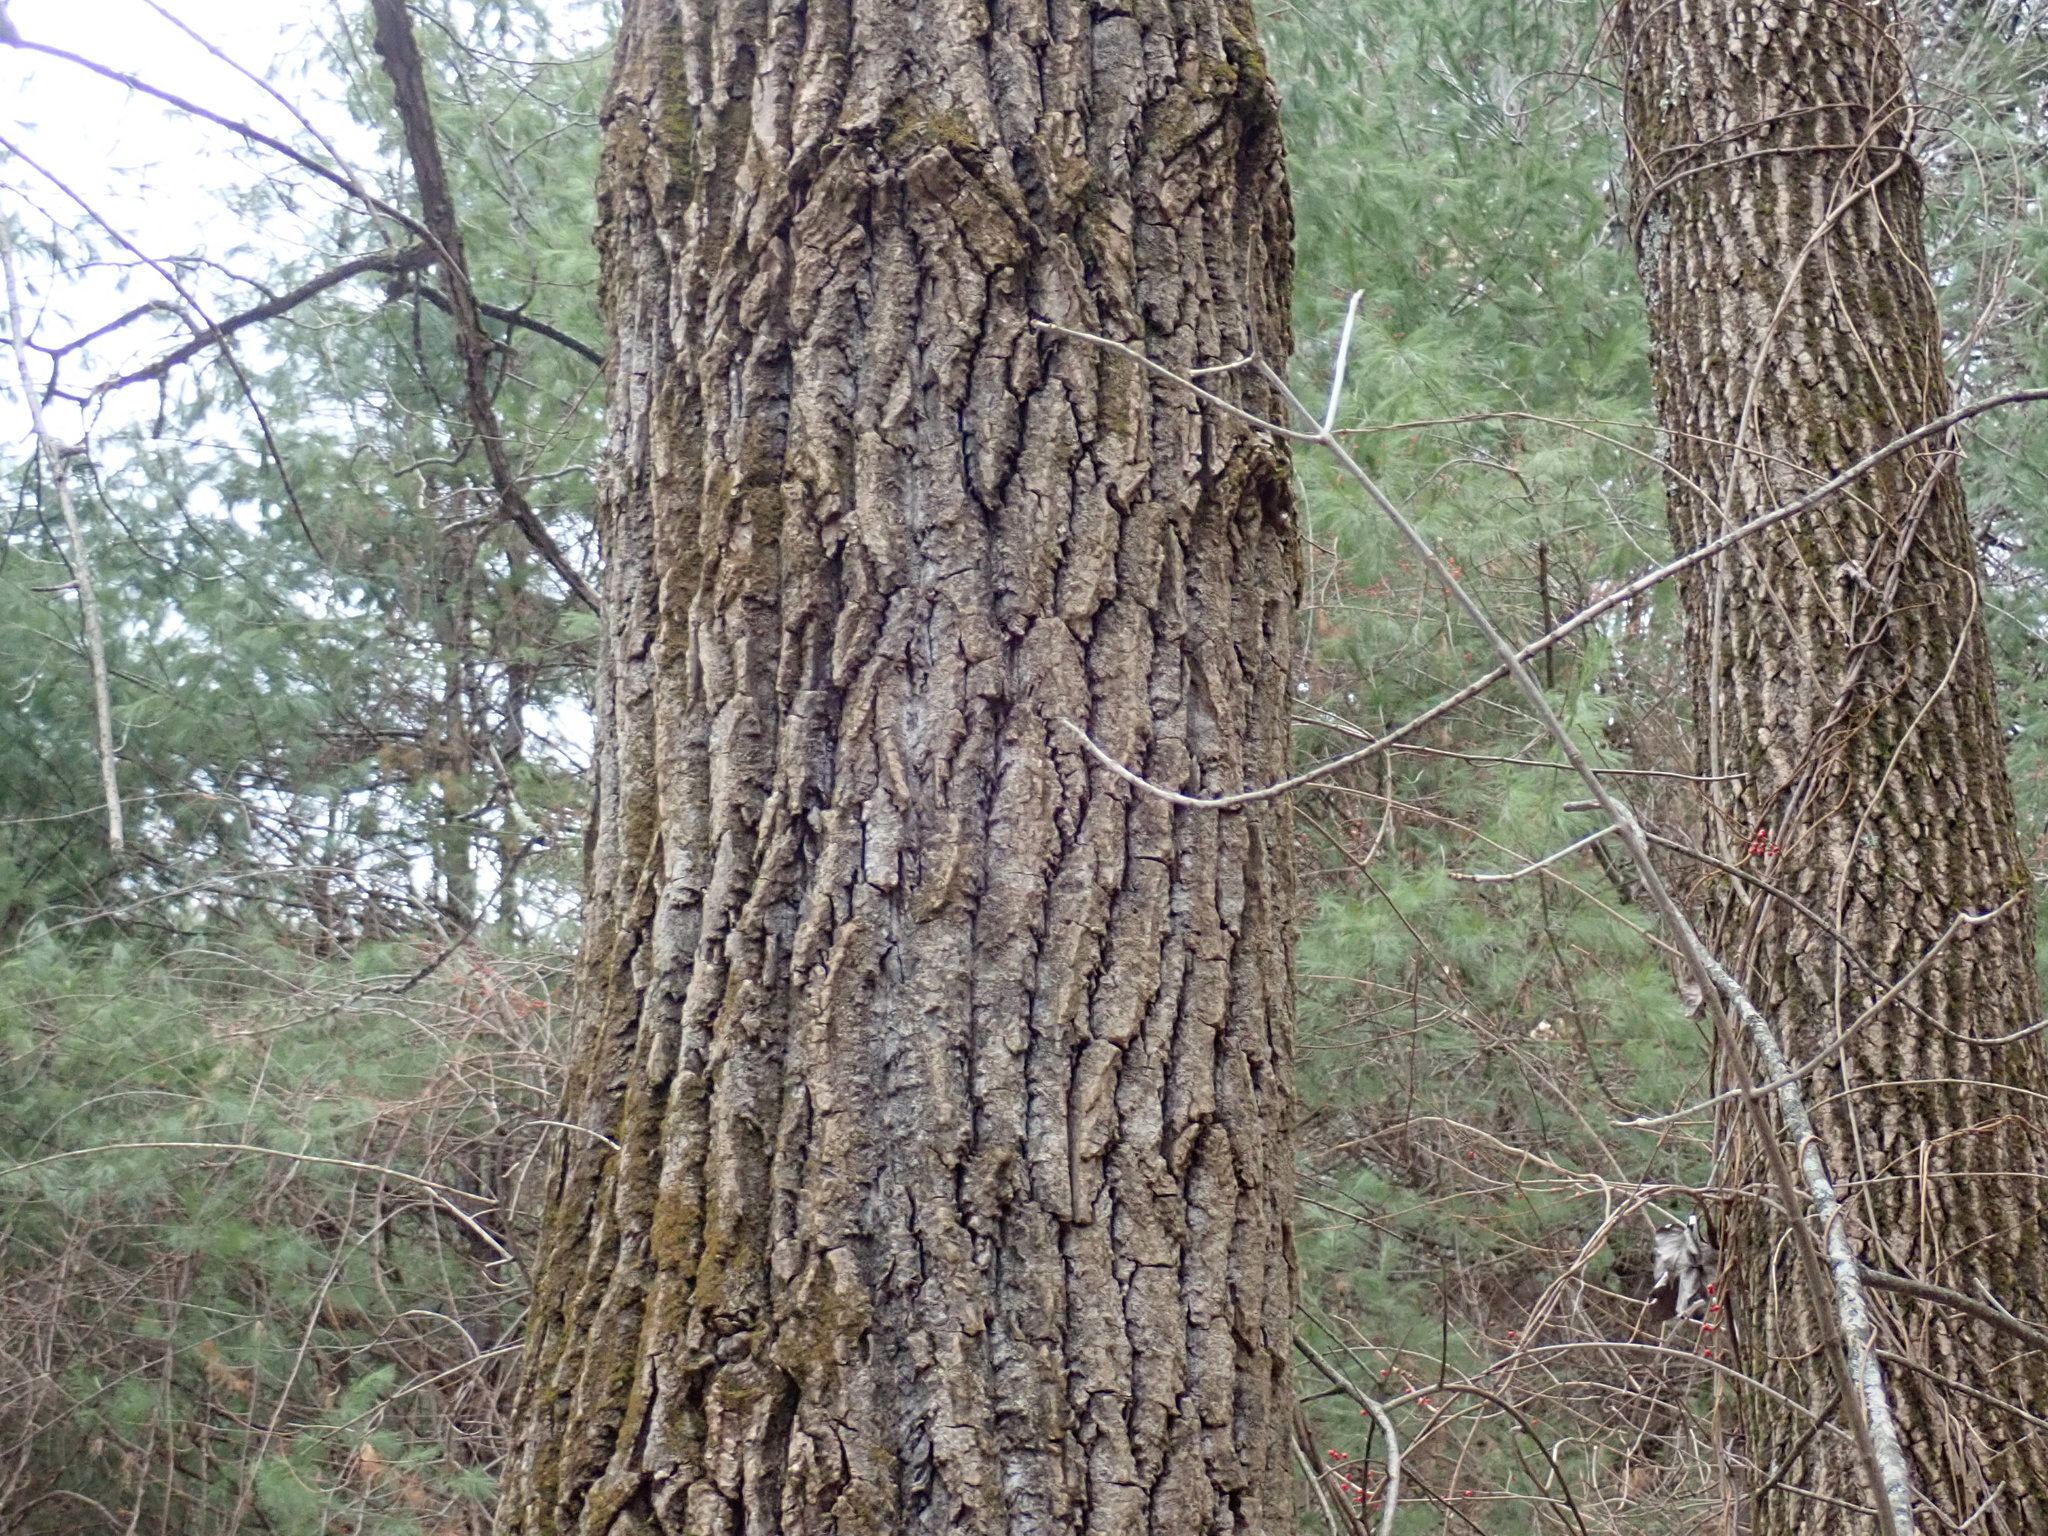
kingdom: Plantae
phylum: Tracheophyta
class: Magnoliopsida
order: Malpighiales
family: Salicaceae
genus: Populus
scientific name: Populus deltoides
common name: Eastern cottonwood
